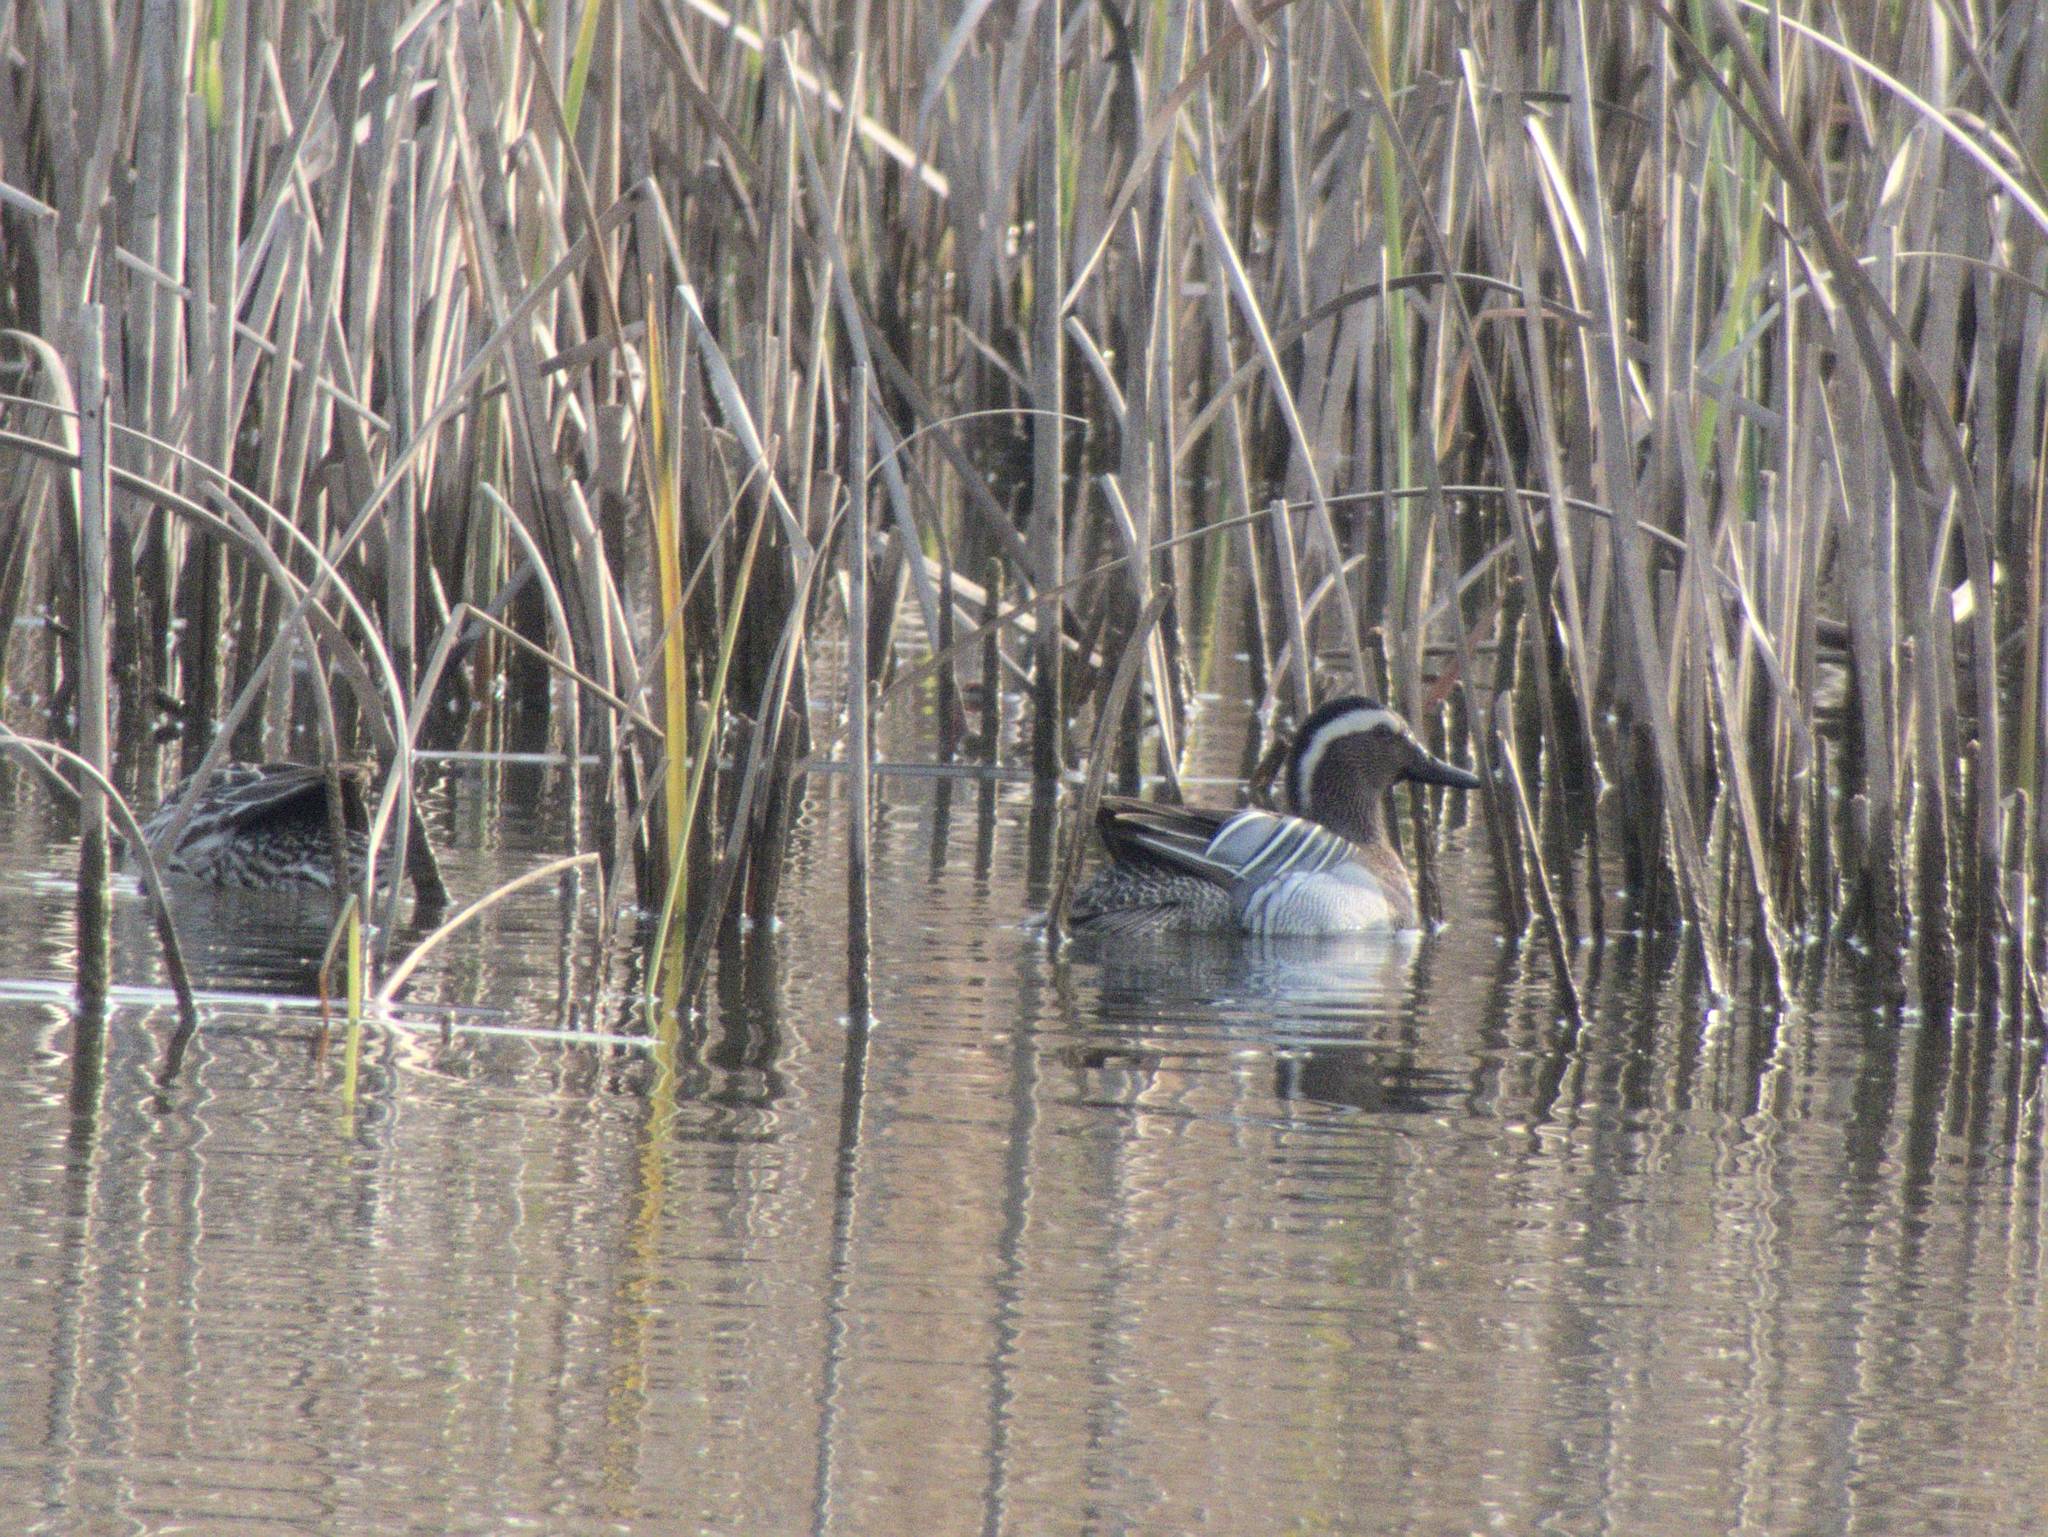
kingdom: Animalia
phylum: Chordata
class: Aves
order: Anseriformes
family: Anatidae
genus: Spatula
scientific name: Spatula querquedula
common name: Garganey
